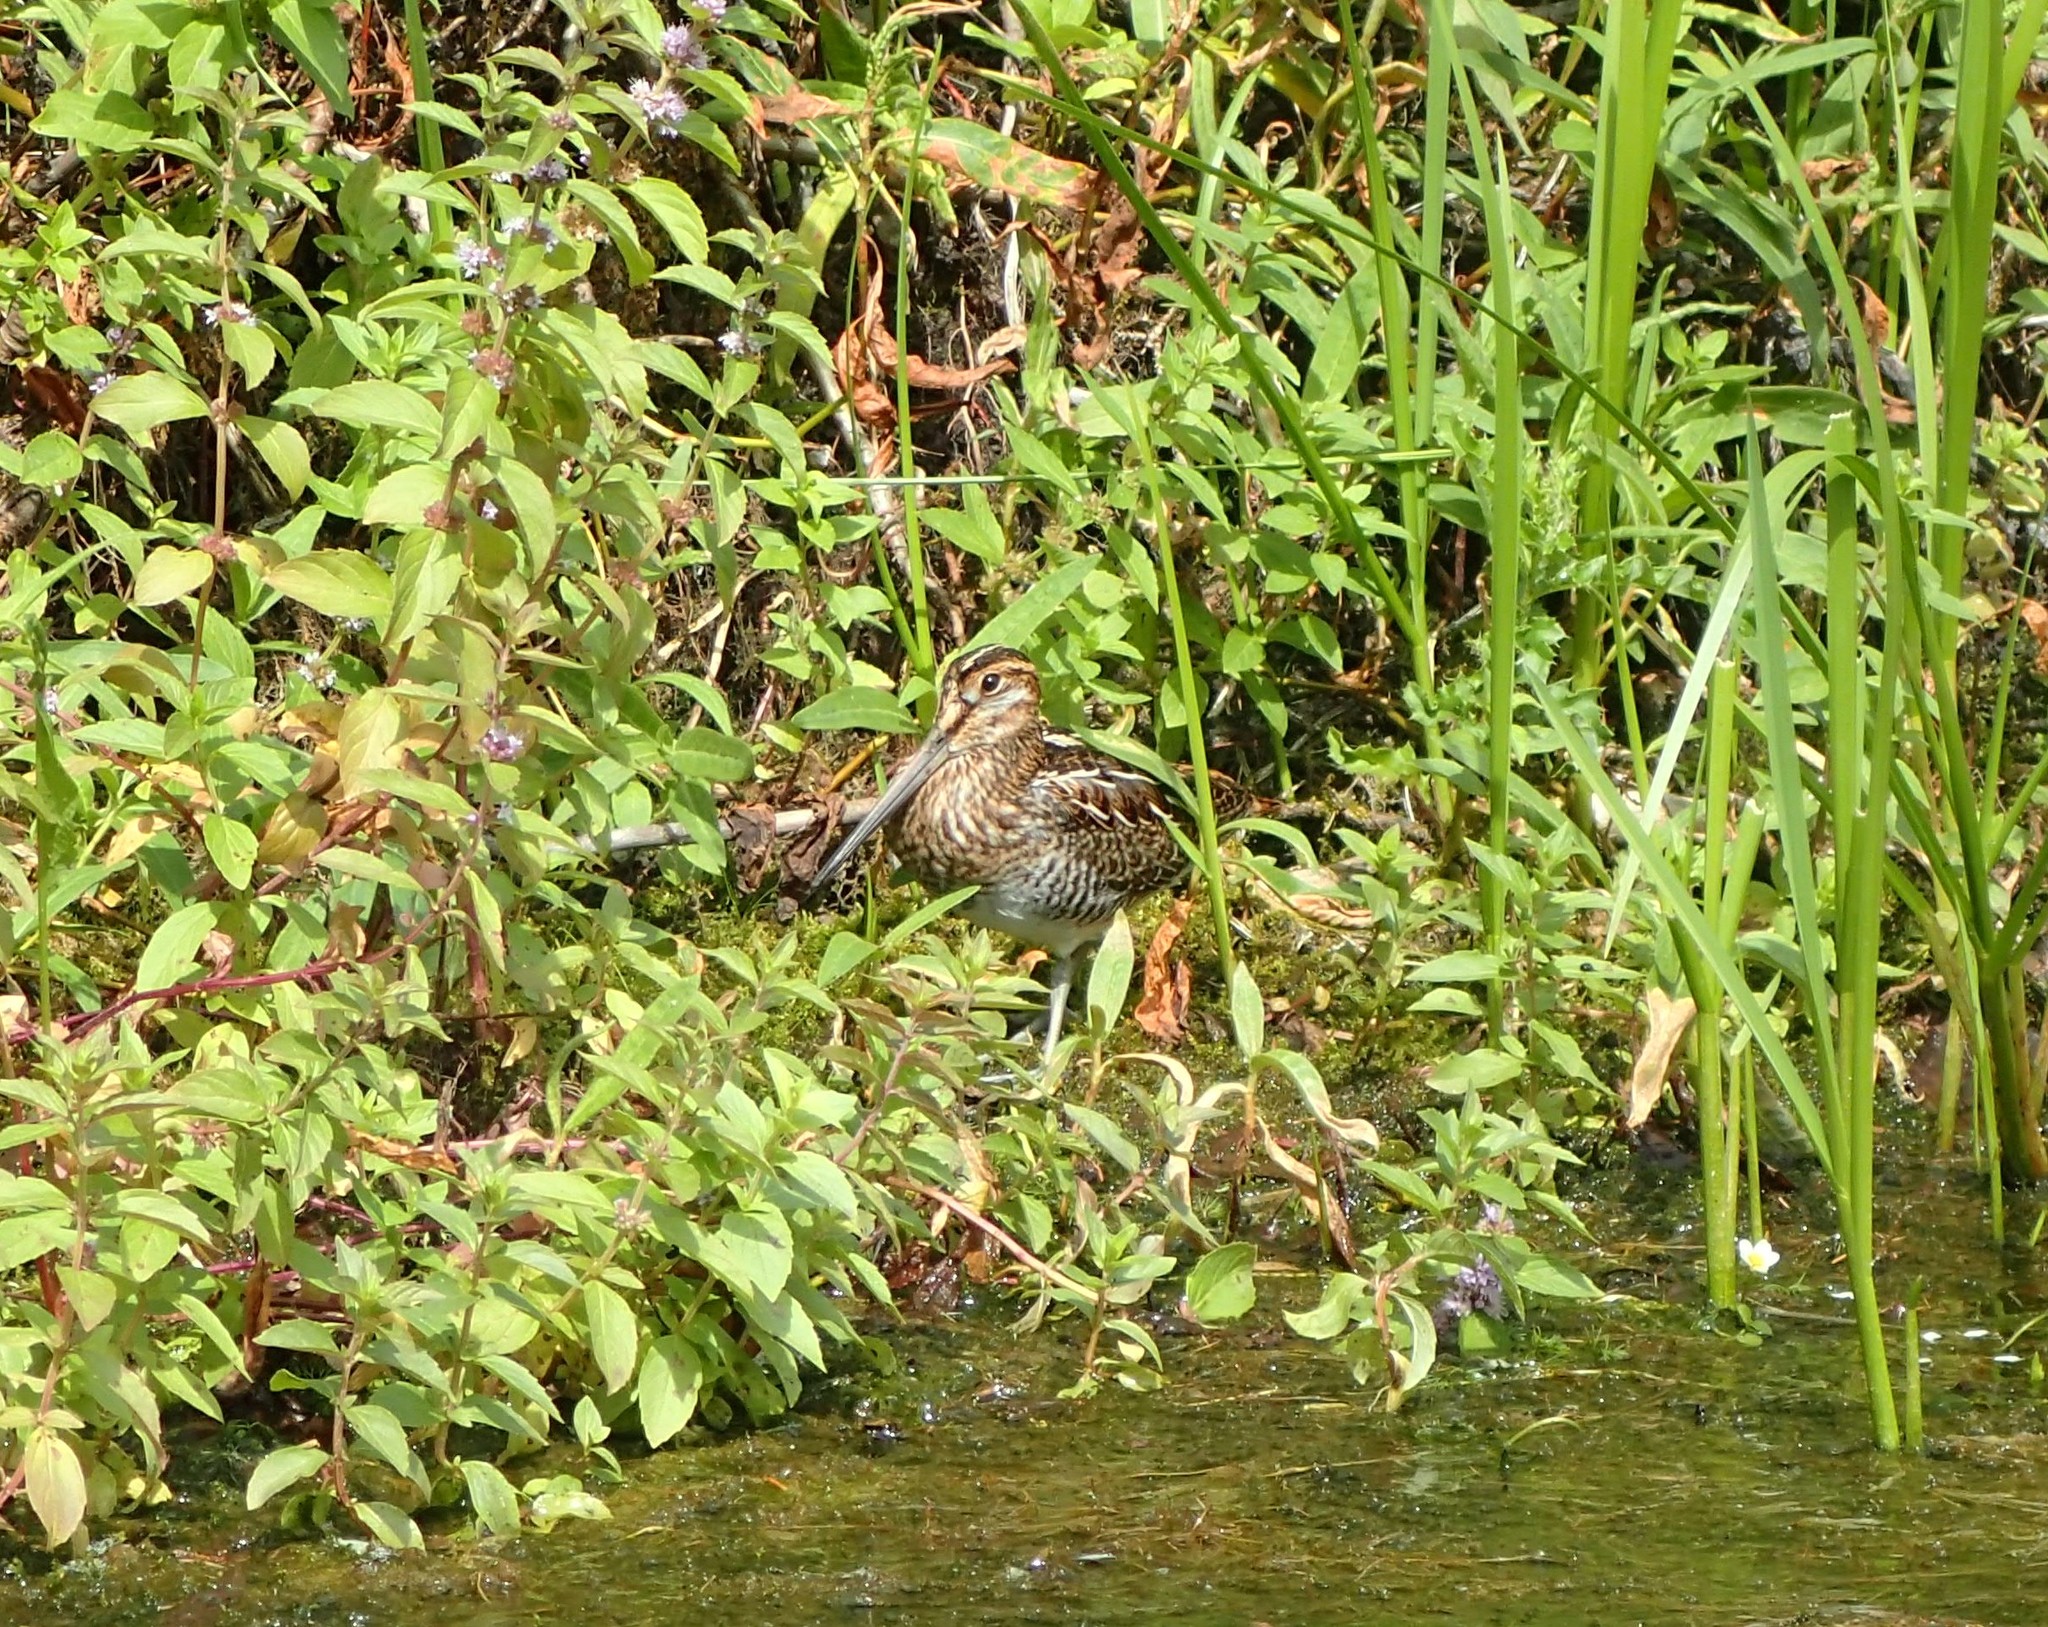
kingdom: Animalia
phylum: Chordata
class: Aves
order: Charadriiformes
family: Scolopacidae
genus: Gallinago
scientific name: Gallinago delicata
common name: Wilson's snipe
